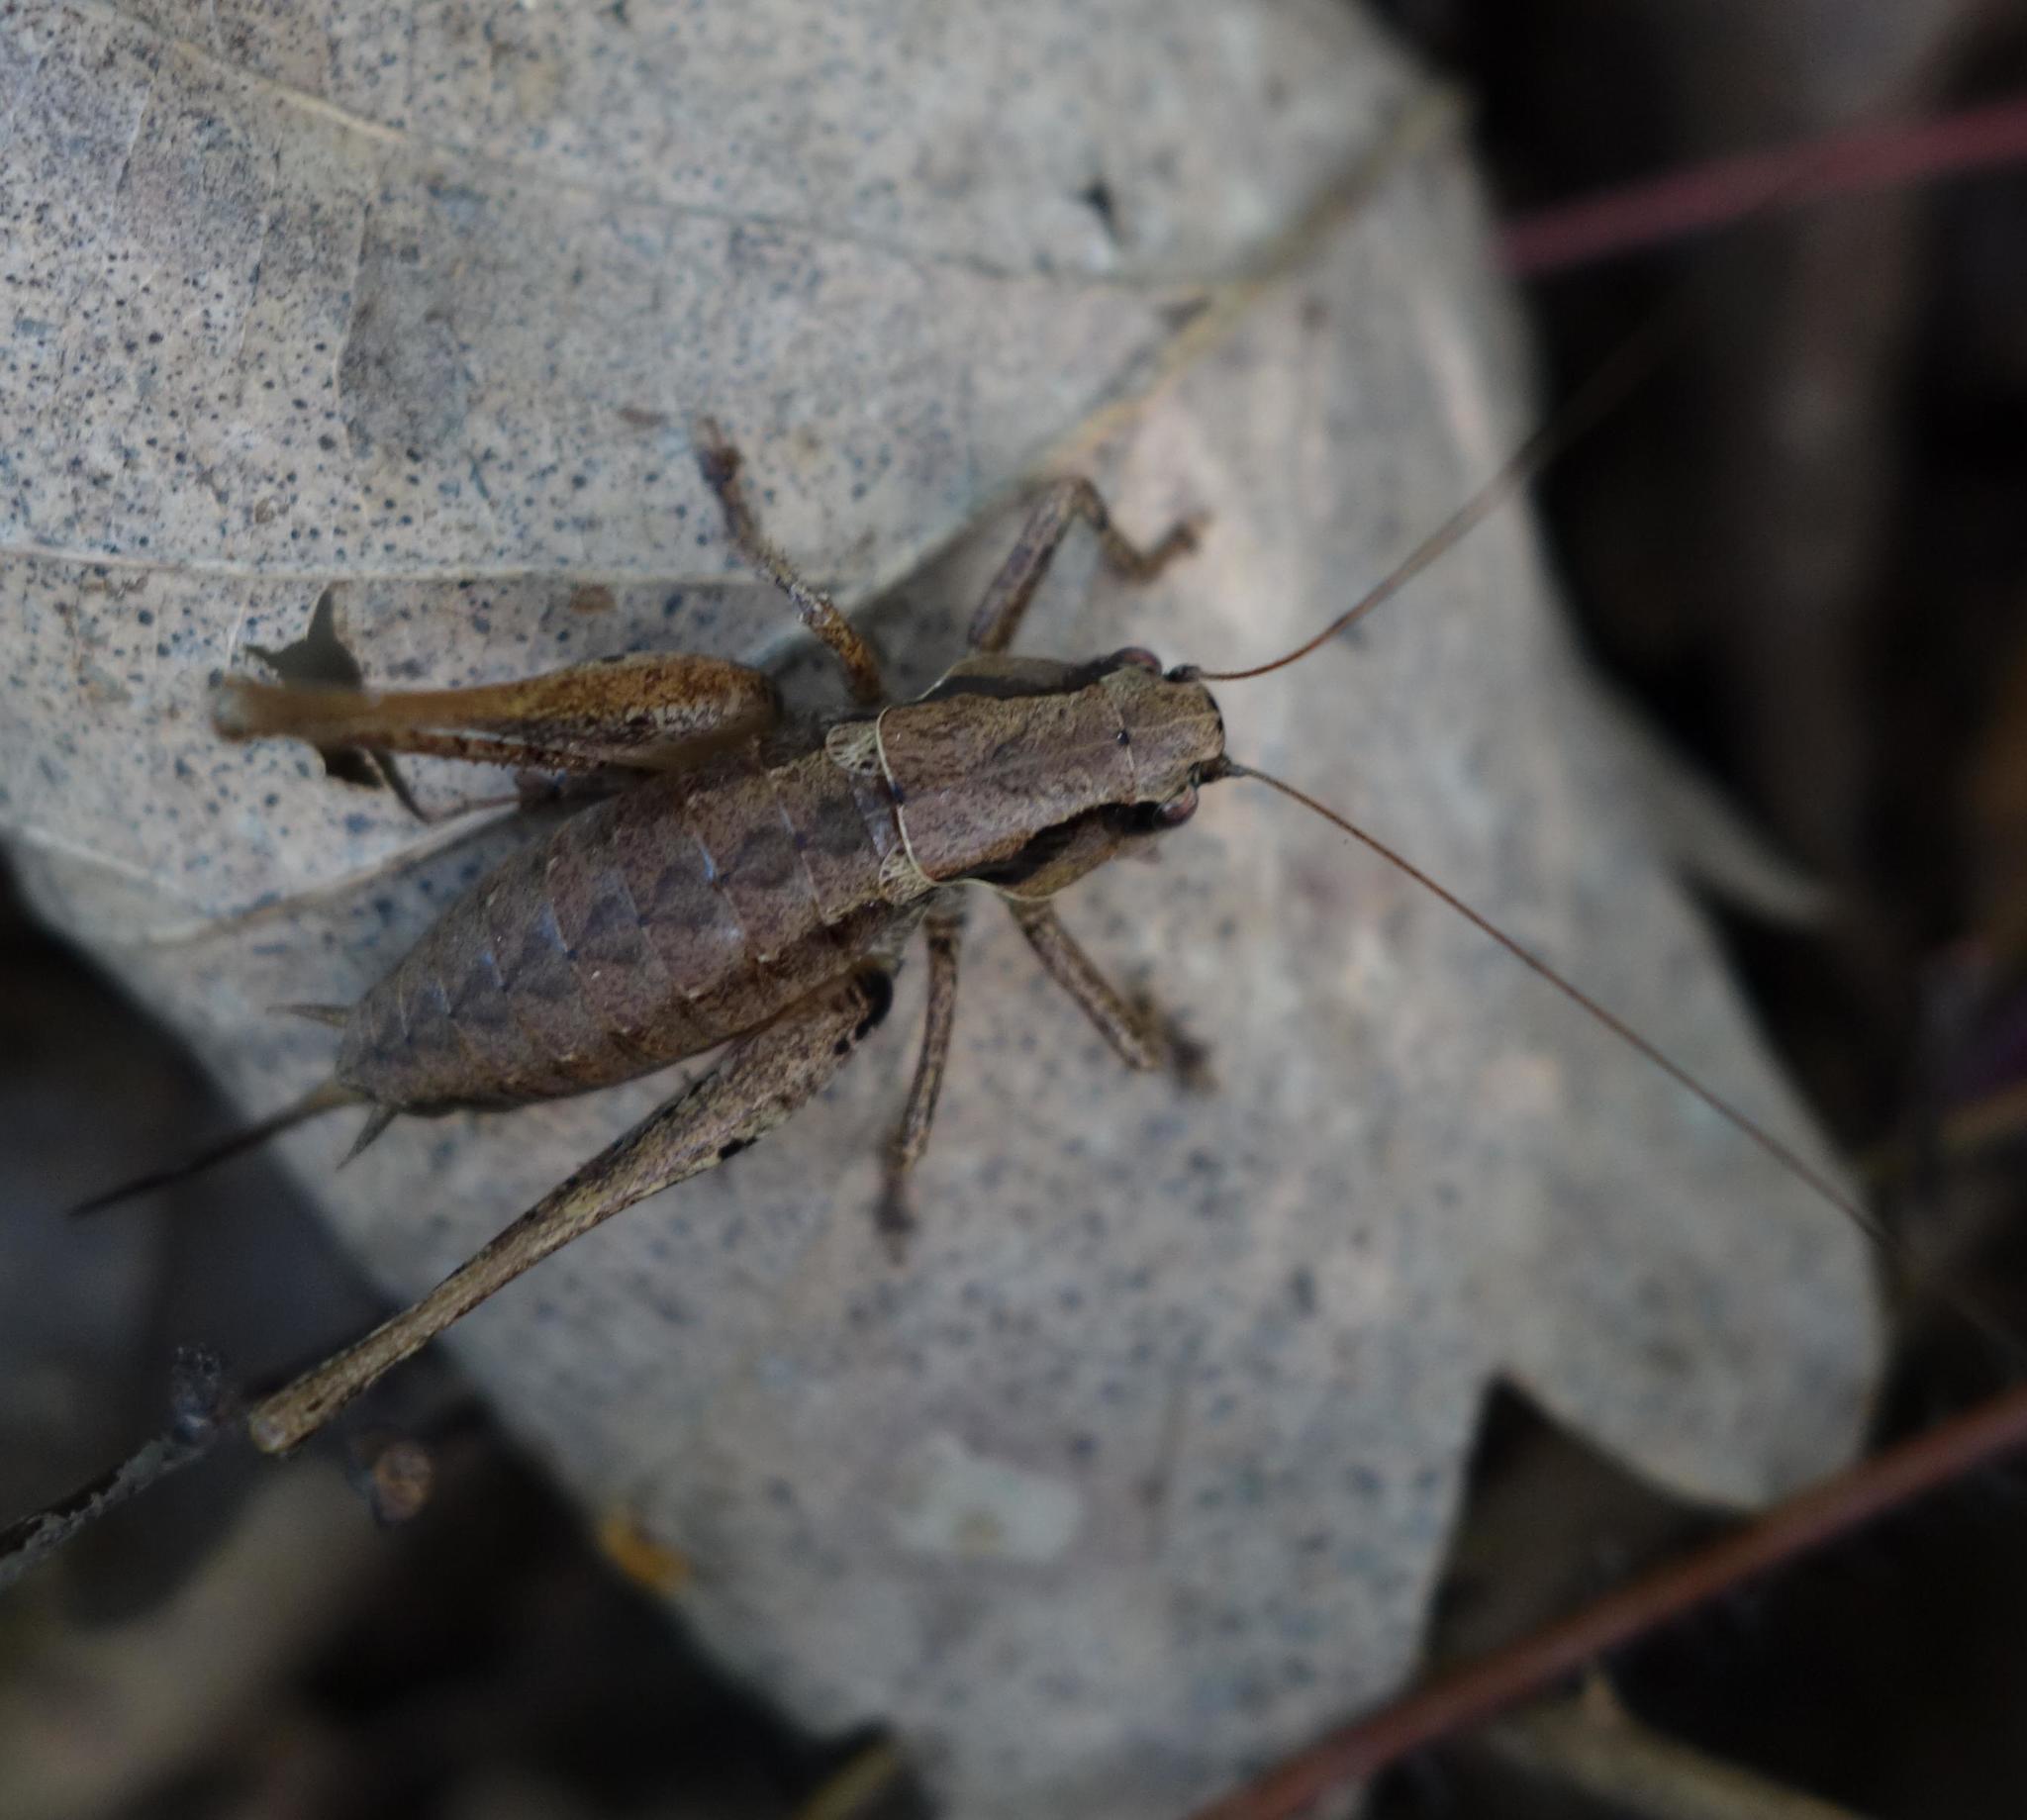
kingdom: Animalia
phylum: Arthropoda
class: Insecta
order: Orthoptera
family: Tettigoniidae
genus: Pholidoptera
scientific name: Pholidoptera griseoaptera
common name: Dark bush-cricket
